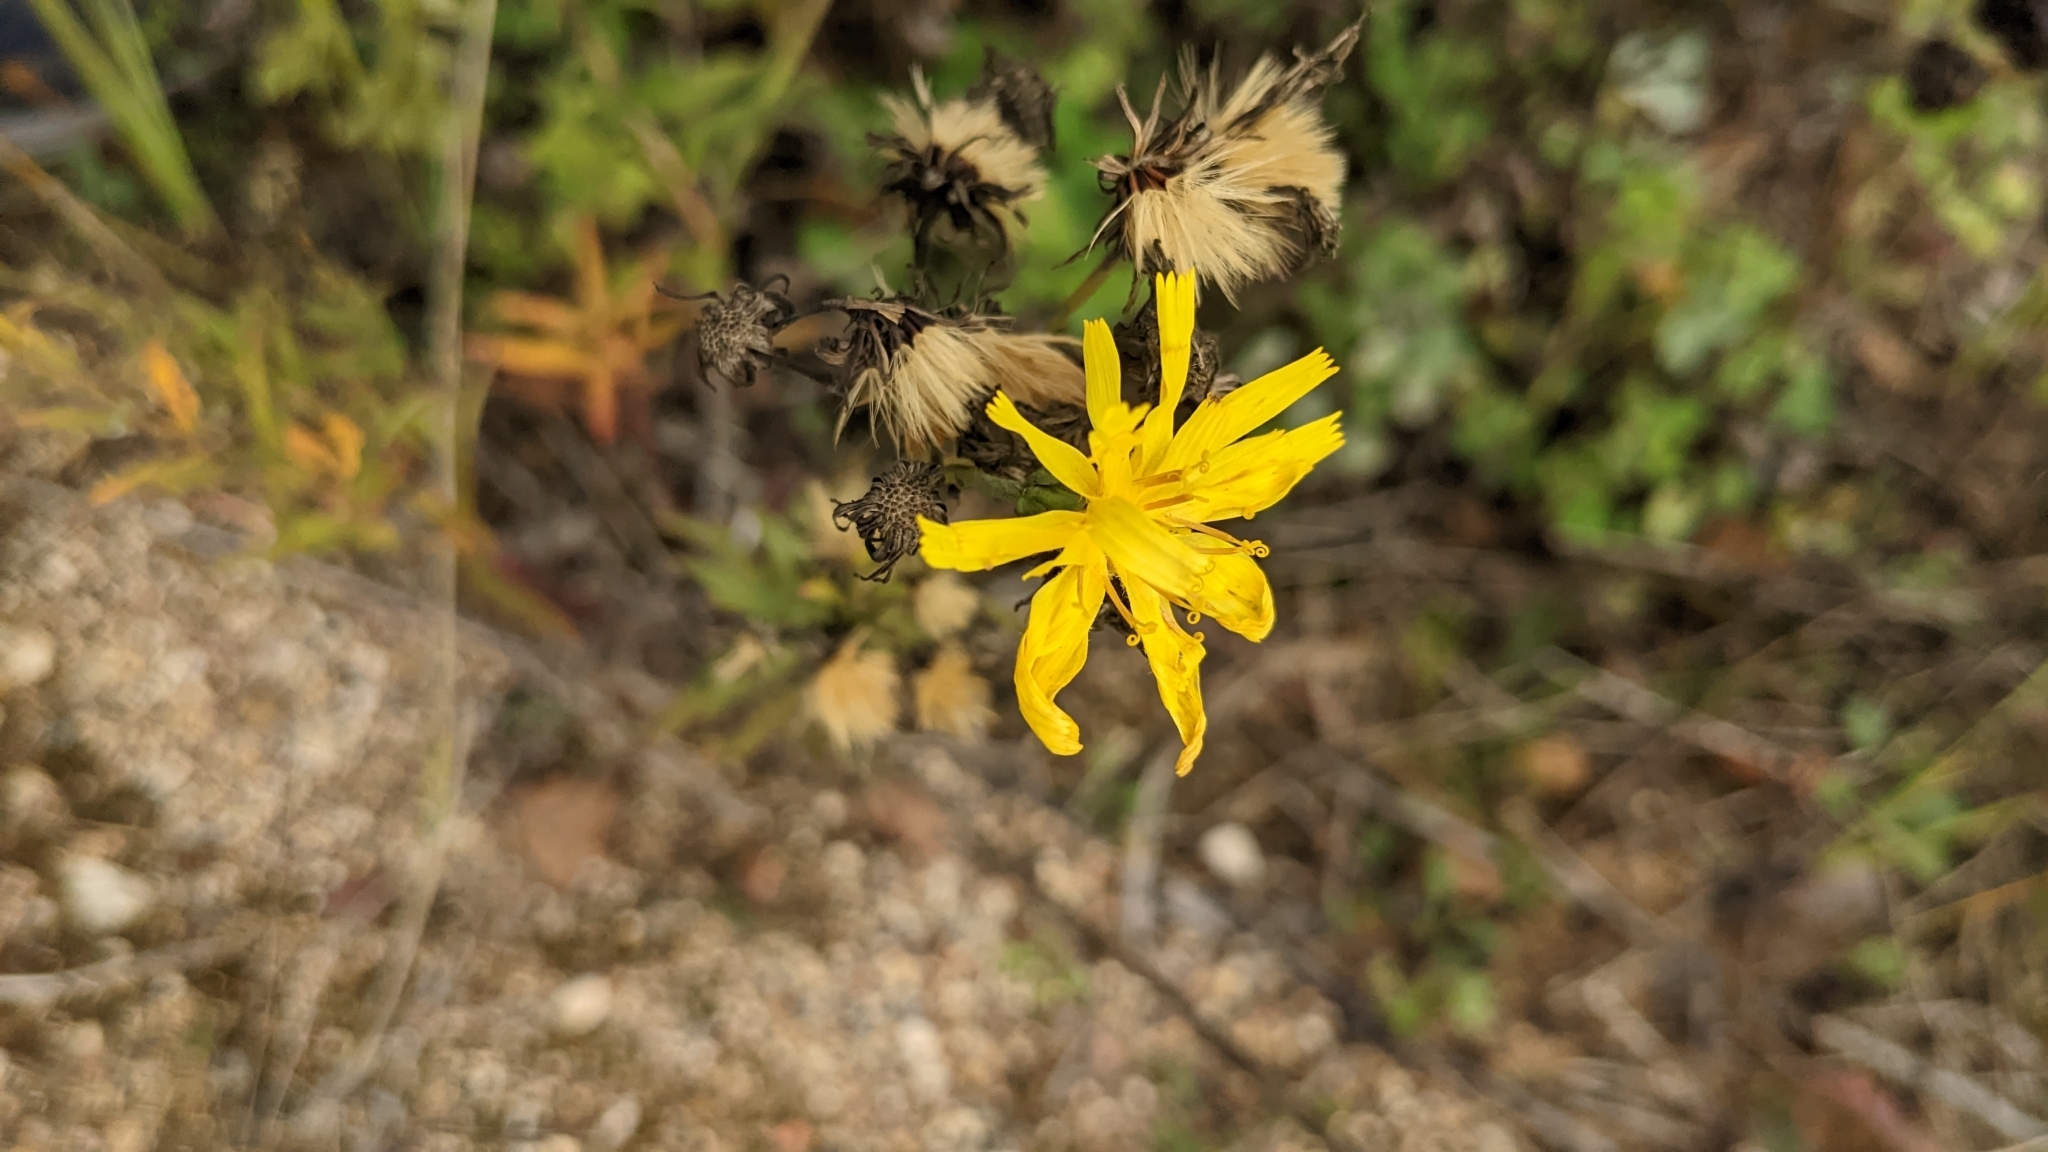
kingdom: Plantae
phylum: Tracheophyta
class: Magnoliopsida
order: Asterales
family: Asteraceae
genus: Hieracium
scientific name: Hieracium umbellatum
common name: Northern hawkweed
